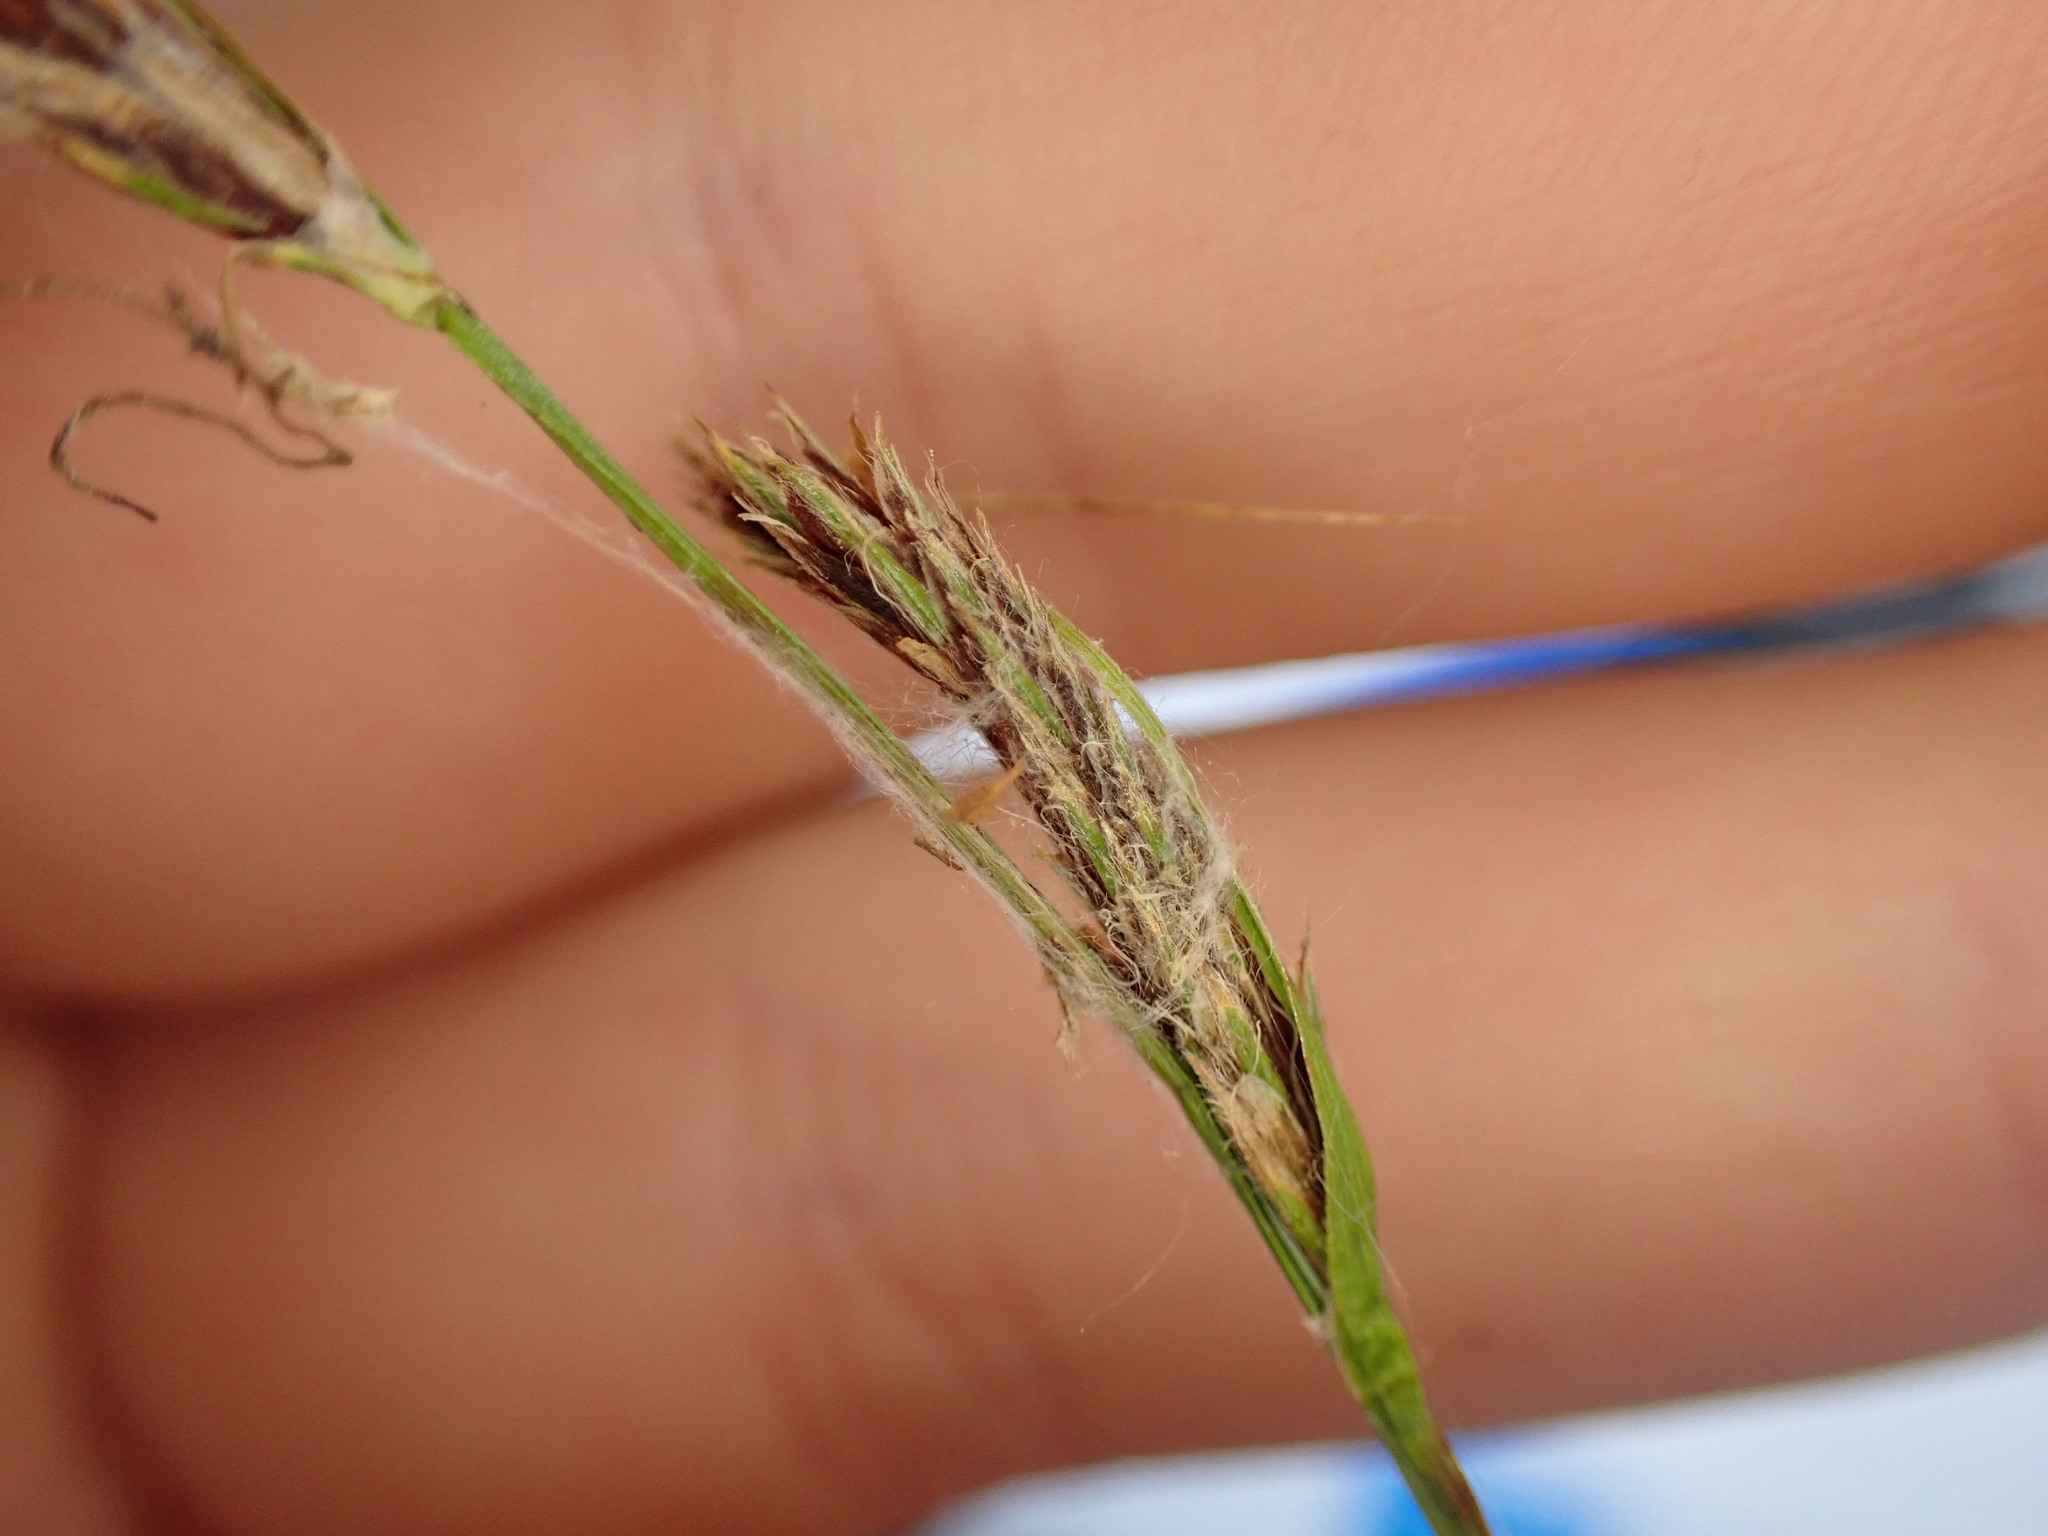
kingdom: Plantae
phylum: Tracheophyta
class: Liliopsida
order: Poales
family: Cyperaceae
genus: Carex
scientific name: Carex hirta
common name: Hairy sedge
